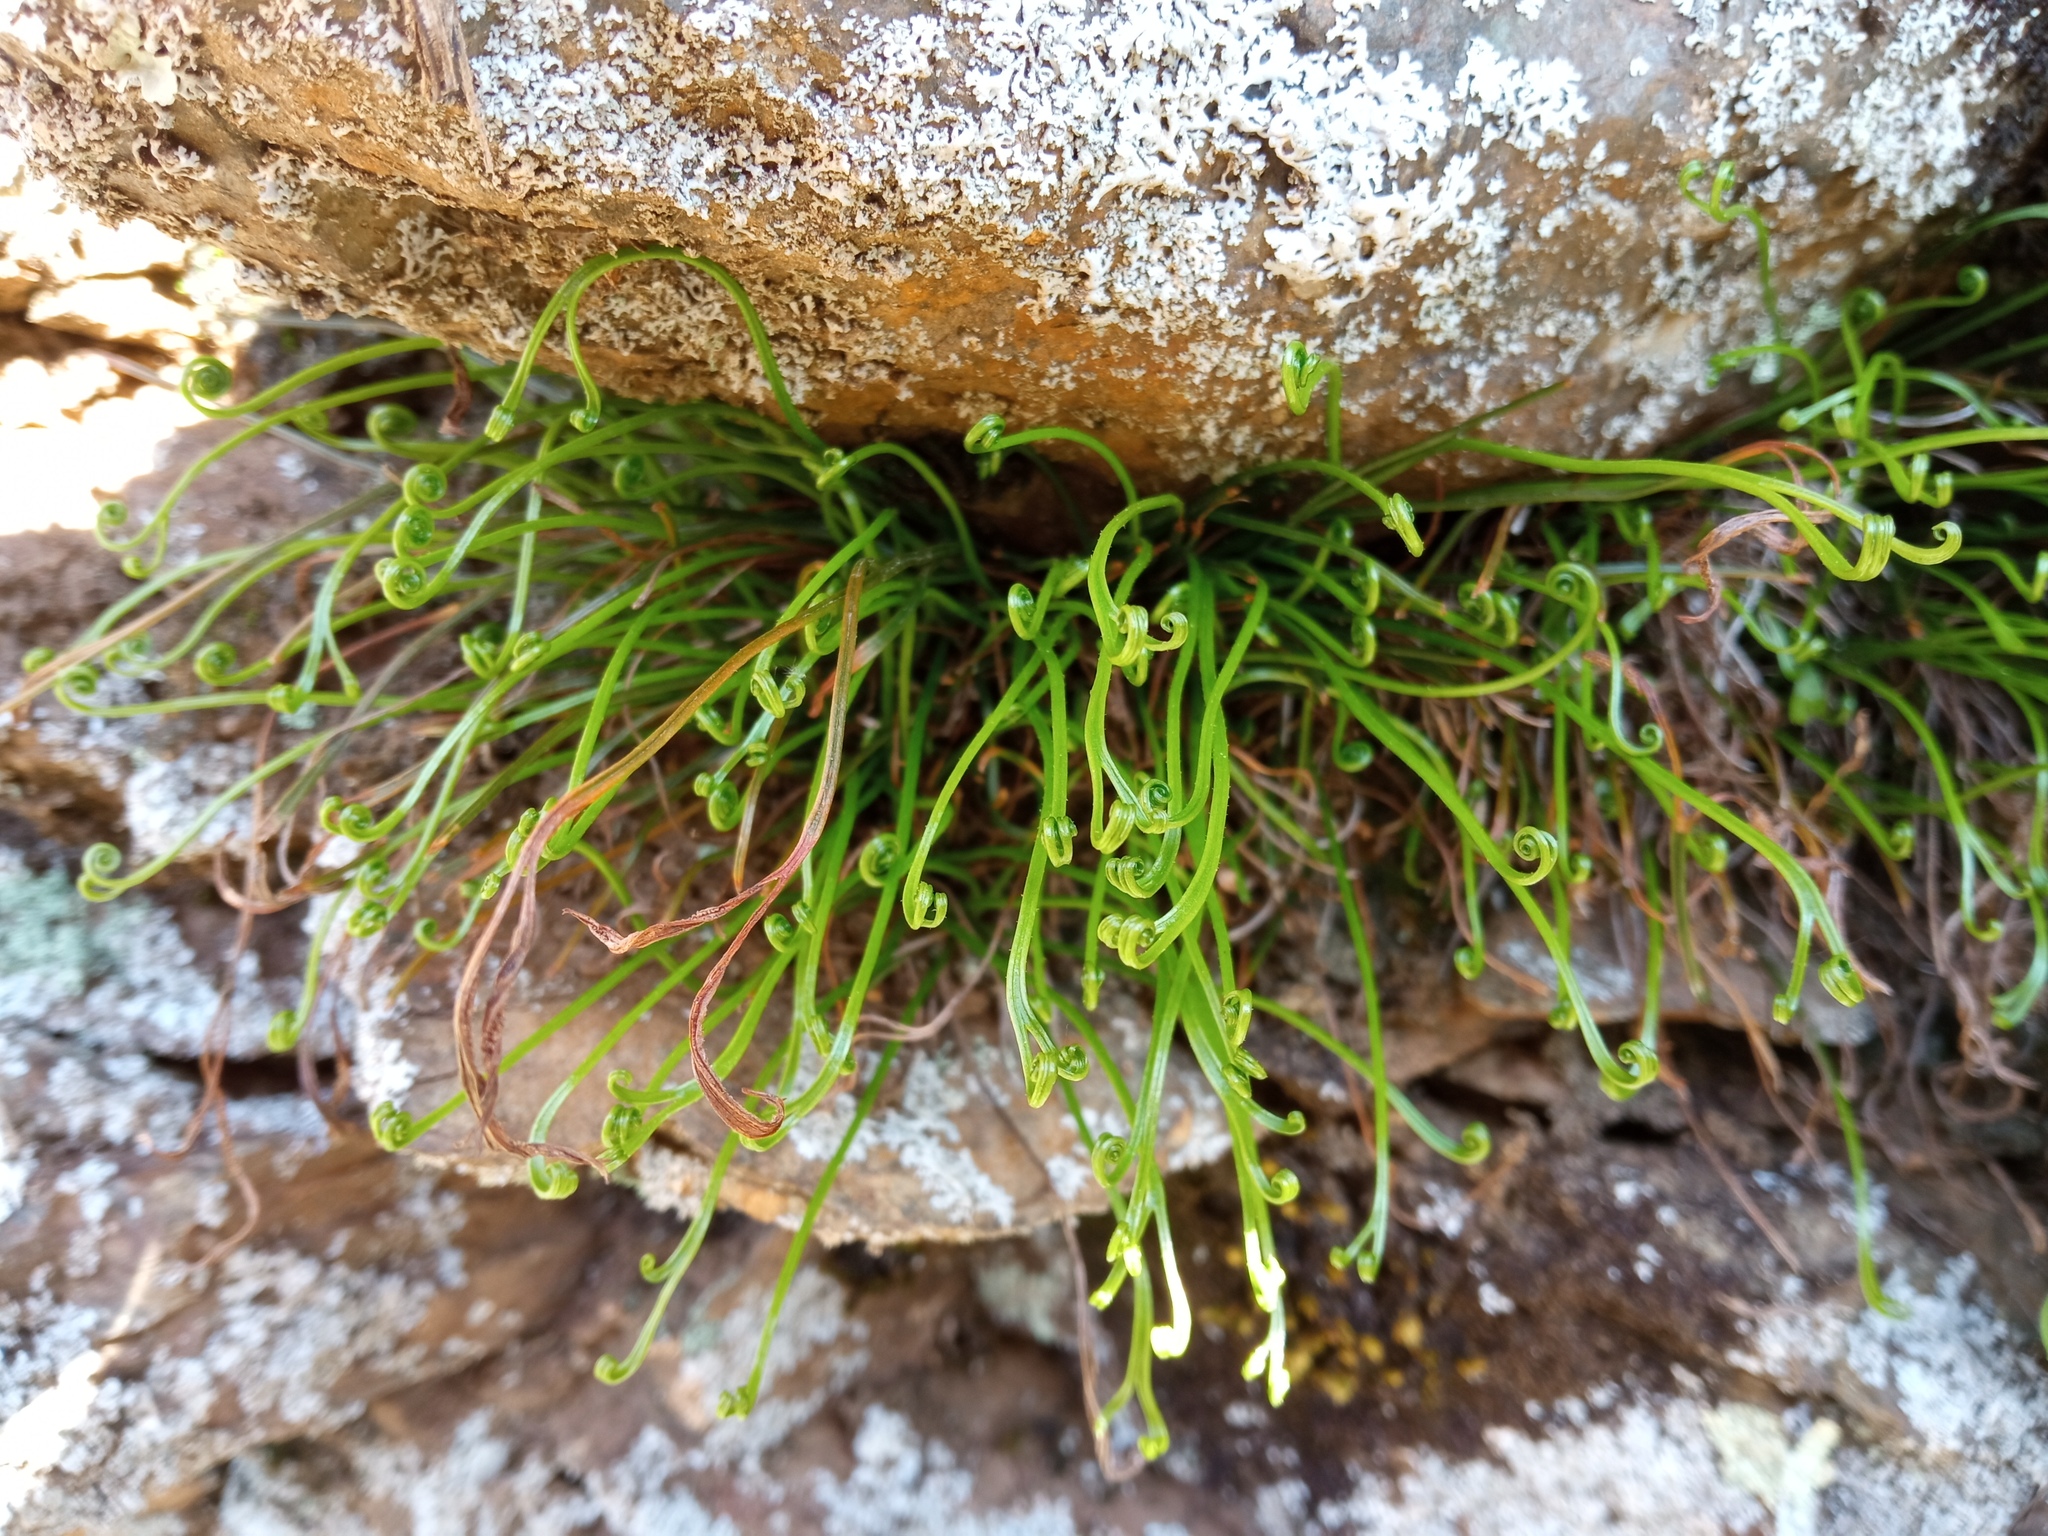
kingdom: Plantae
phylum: Tracheophyta
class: Polypodiopsida
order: Polypodiales
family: Aspleniaceae
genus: Asplenium
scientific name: Asplenium septentrionale
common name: Forked spleenwort
